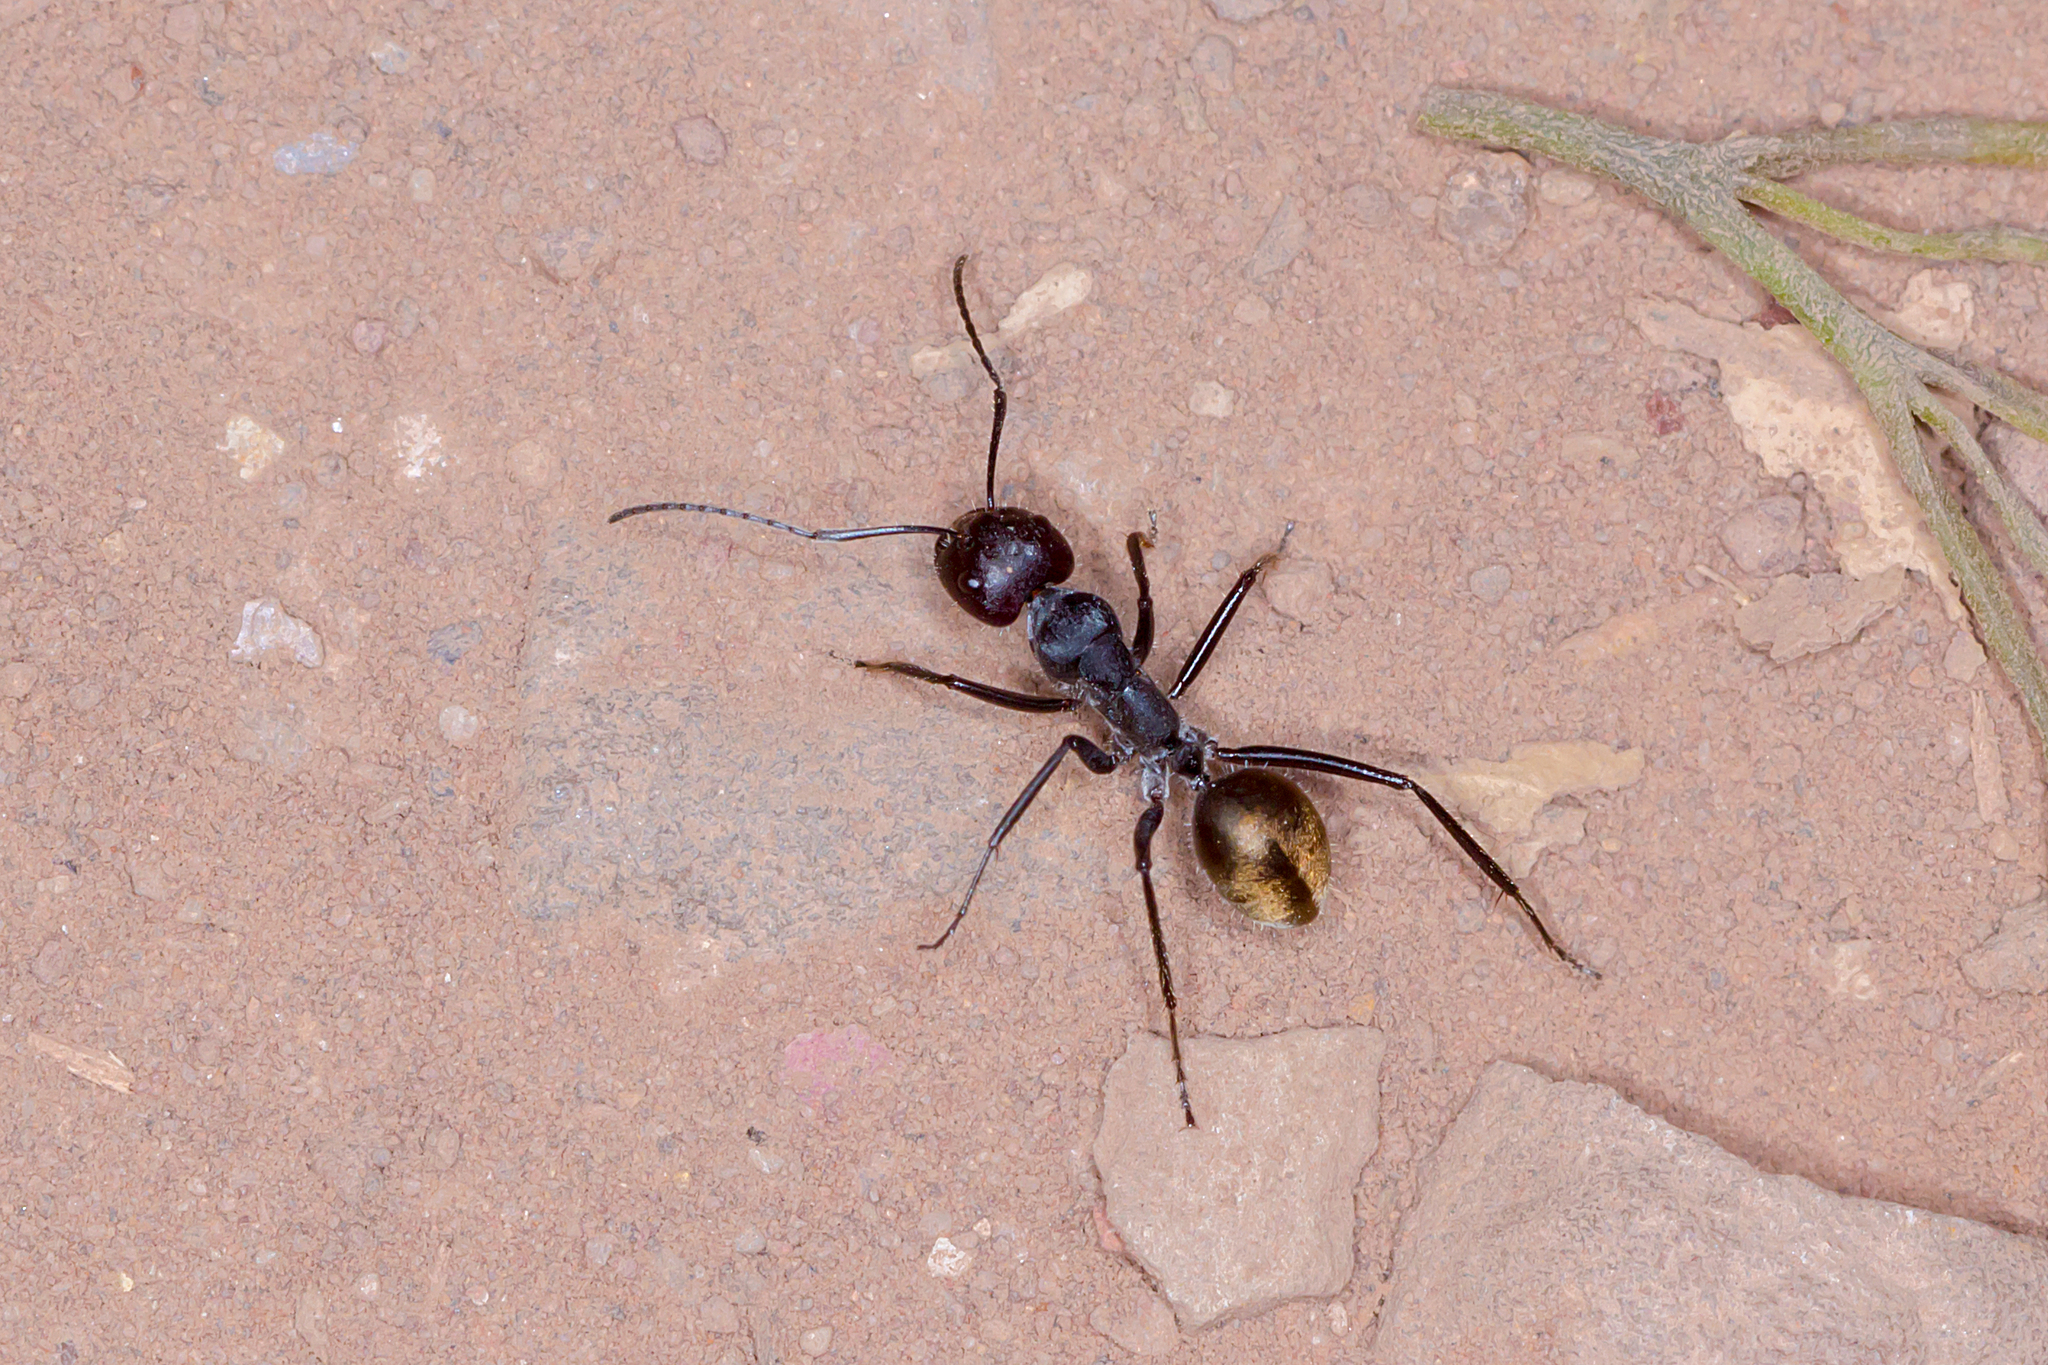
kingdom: Animalia
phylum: Arthropoda
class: Insecta
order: Hymenoptera
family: Formicidae
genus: Camponotus
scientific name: Camponotus suffusus
